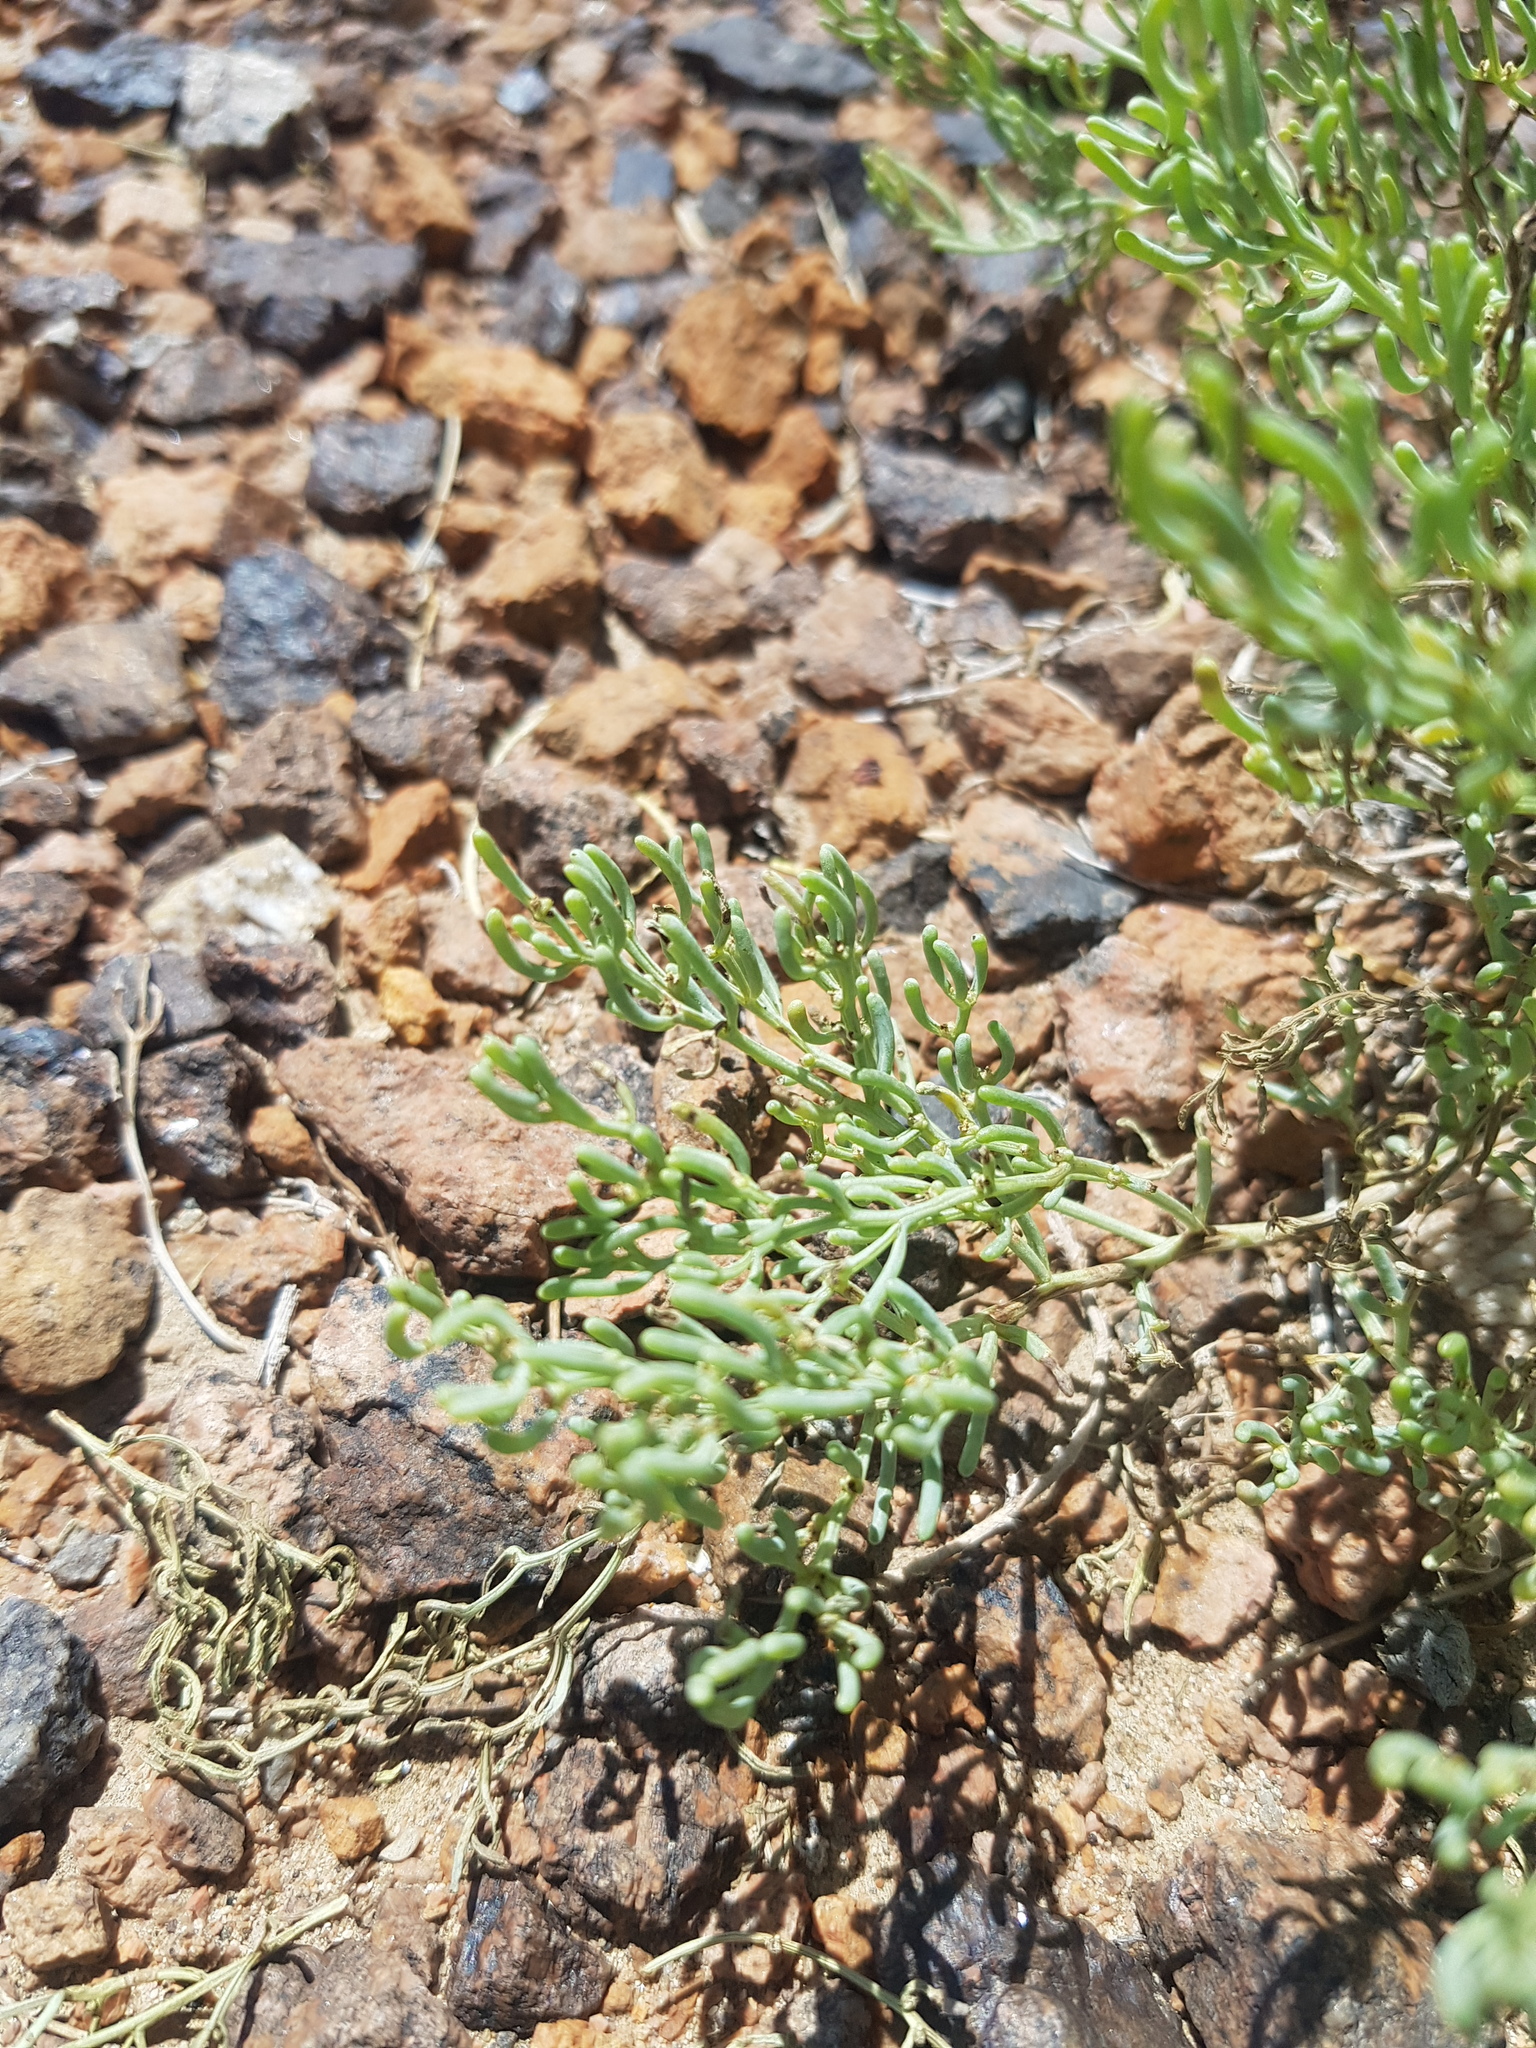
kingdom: Plantae
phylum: Tracheophyta
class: Magnoliopsida
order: Caryophyllales
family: Amaranthaceae
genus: Haloxylon
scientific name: Haloxylon regelii
